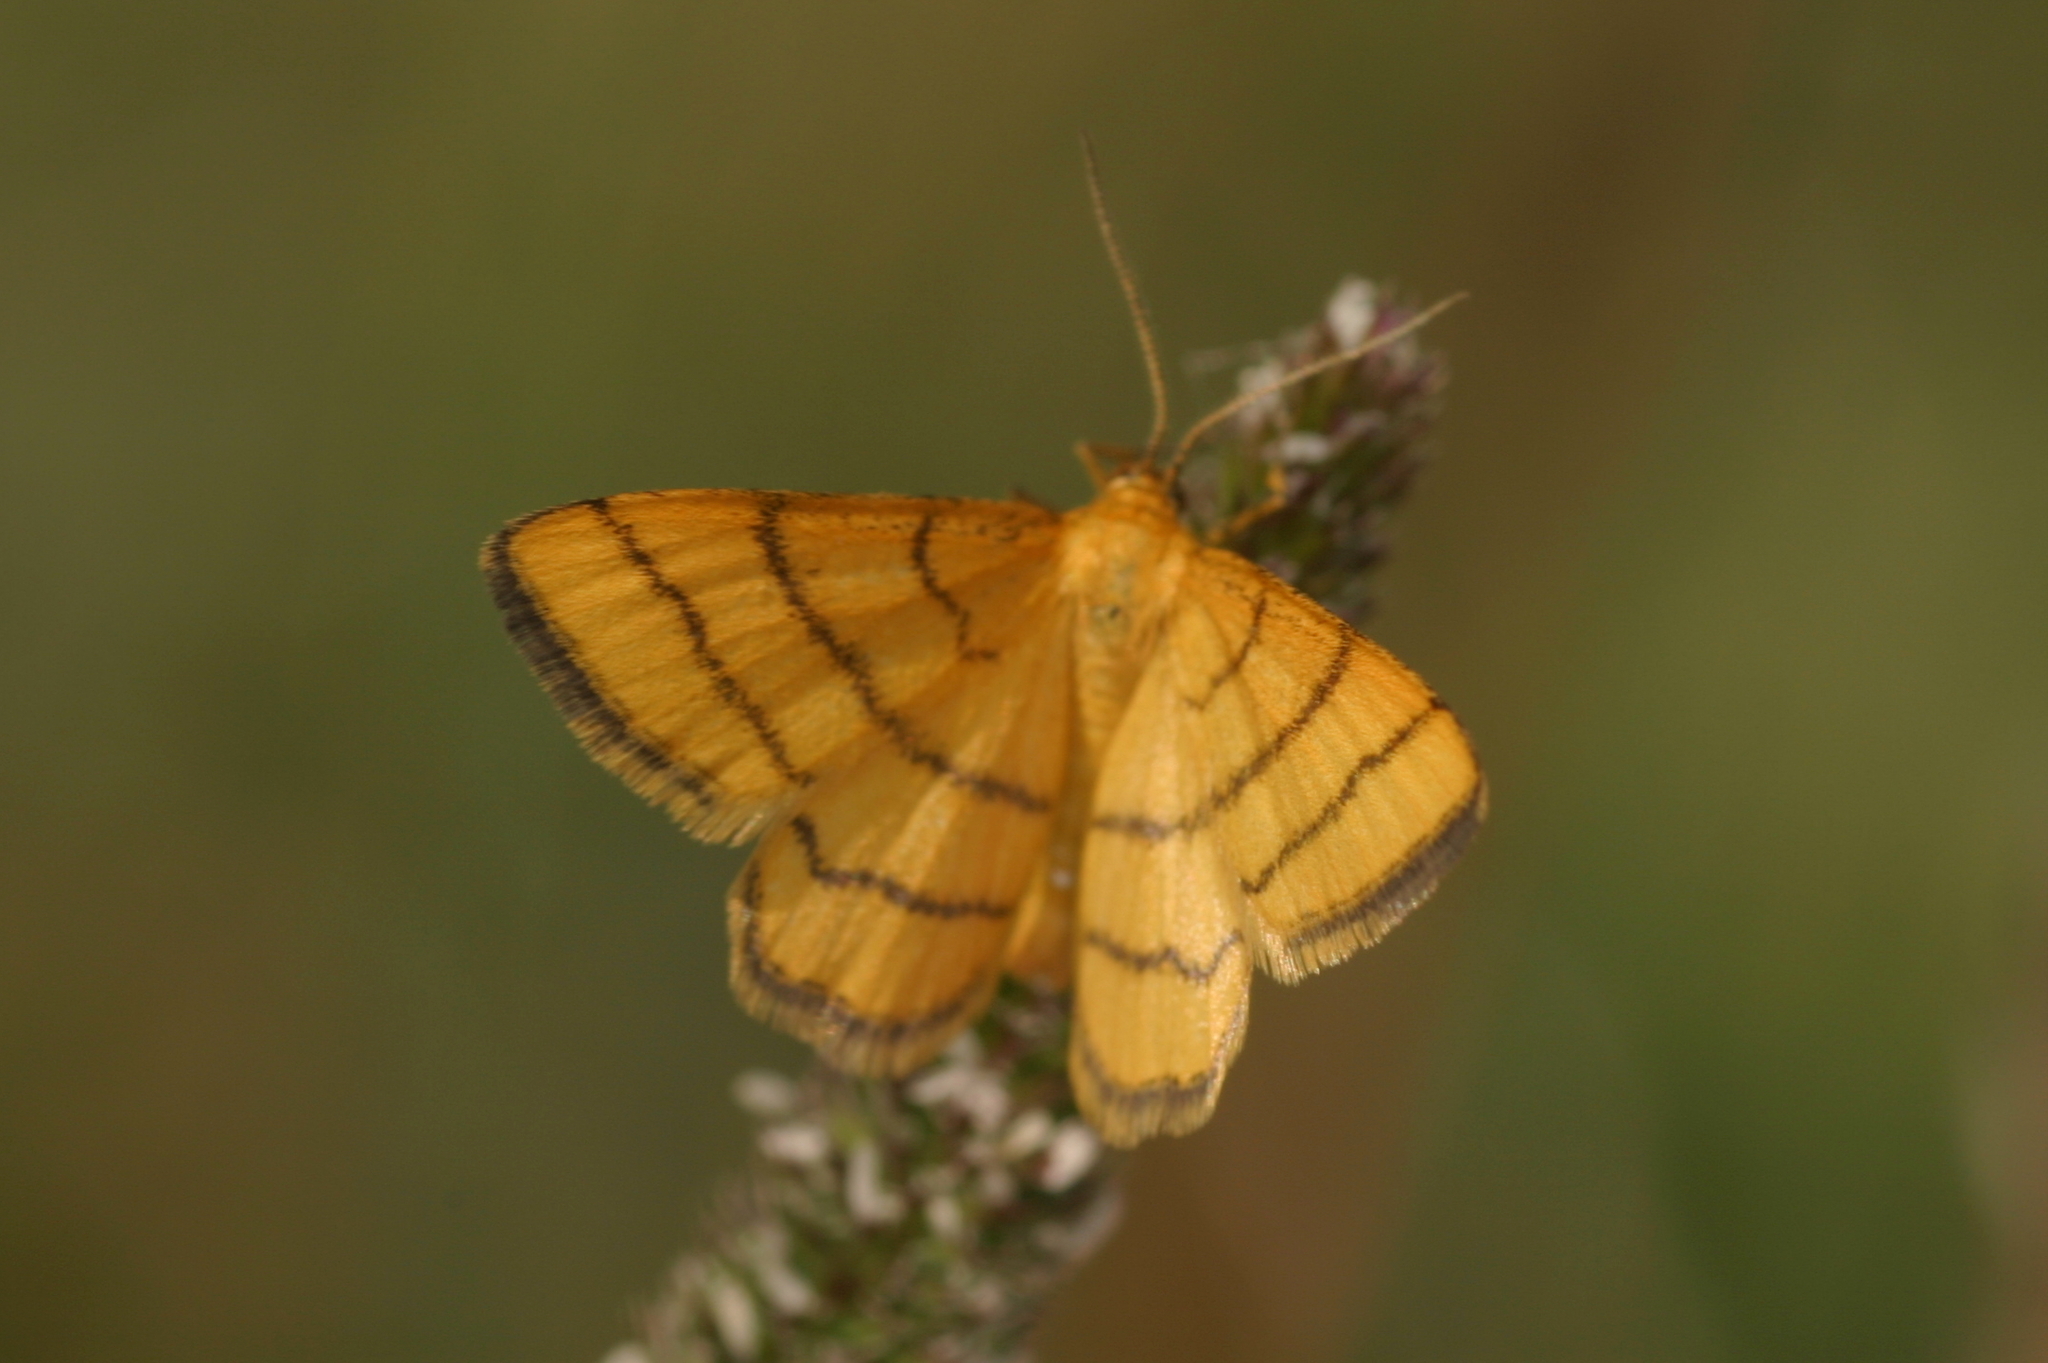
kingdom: Animalia
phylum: Arthropoda
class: Insecta
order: Lepidoptera
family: Geometridae
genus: Idaea
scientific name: Idaea aureolaria
